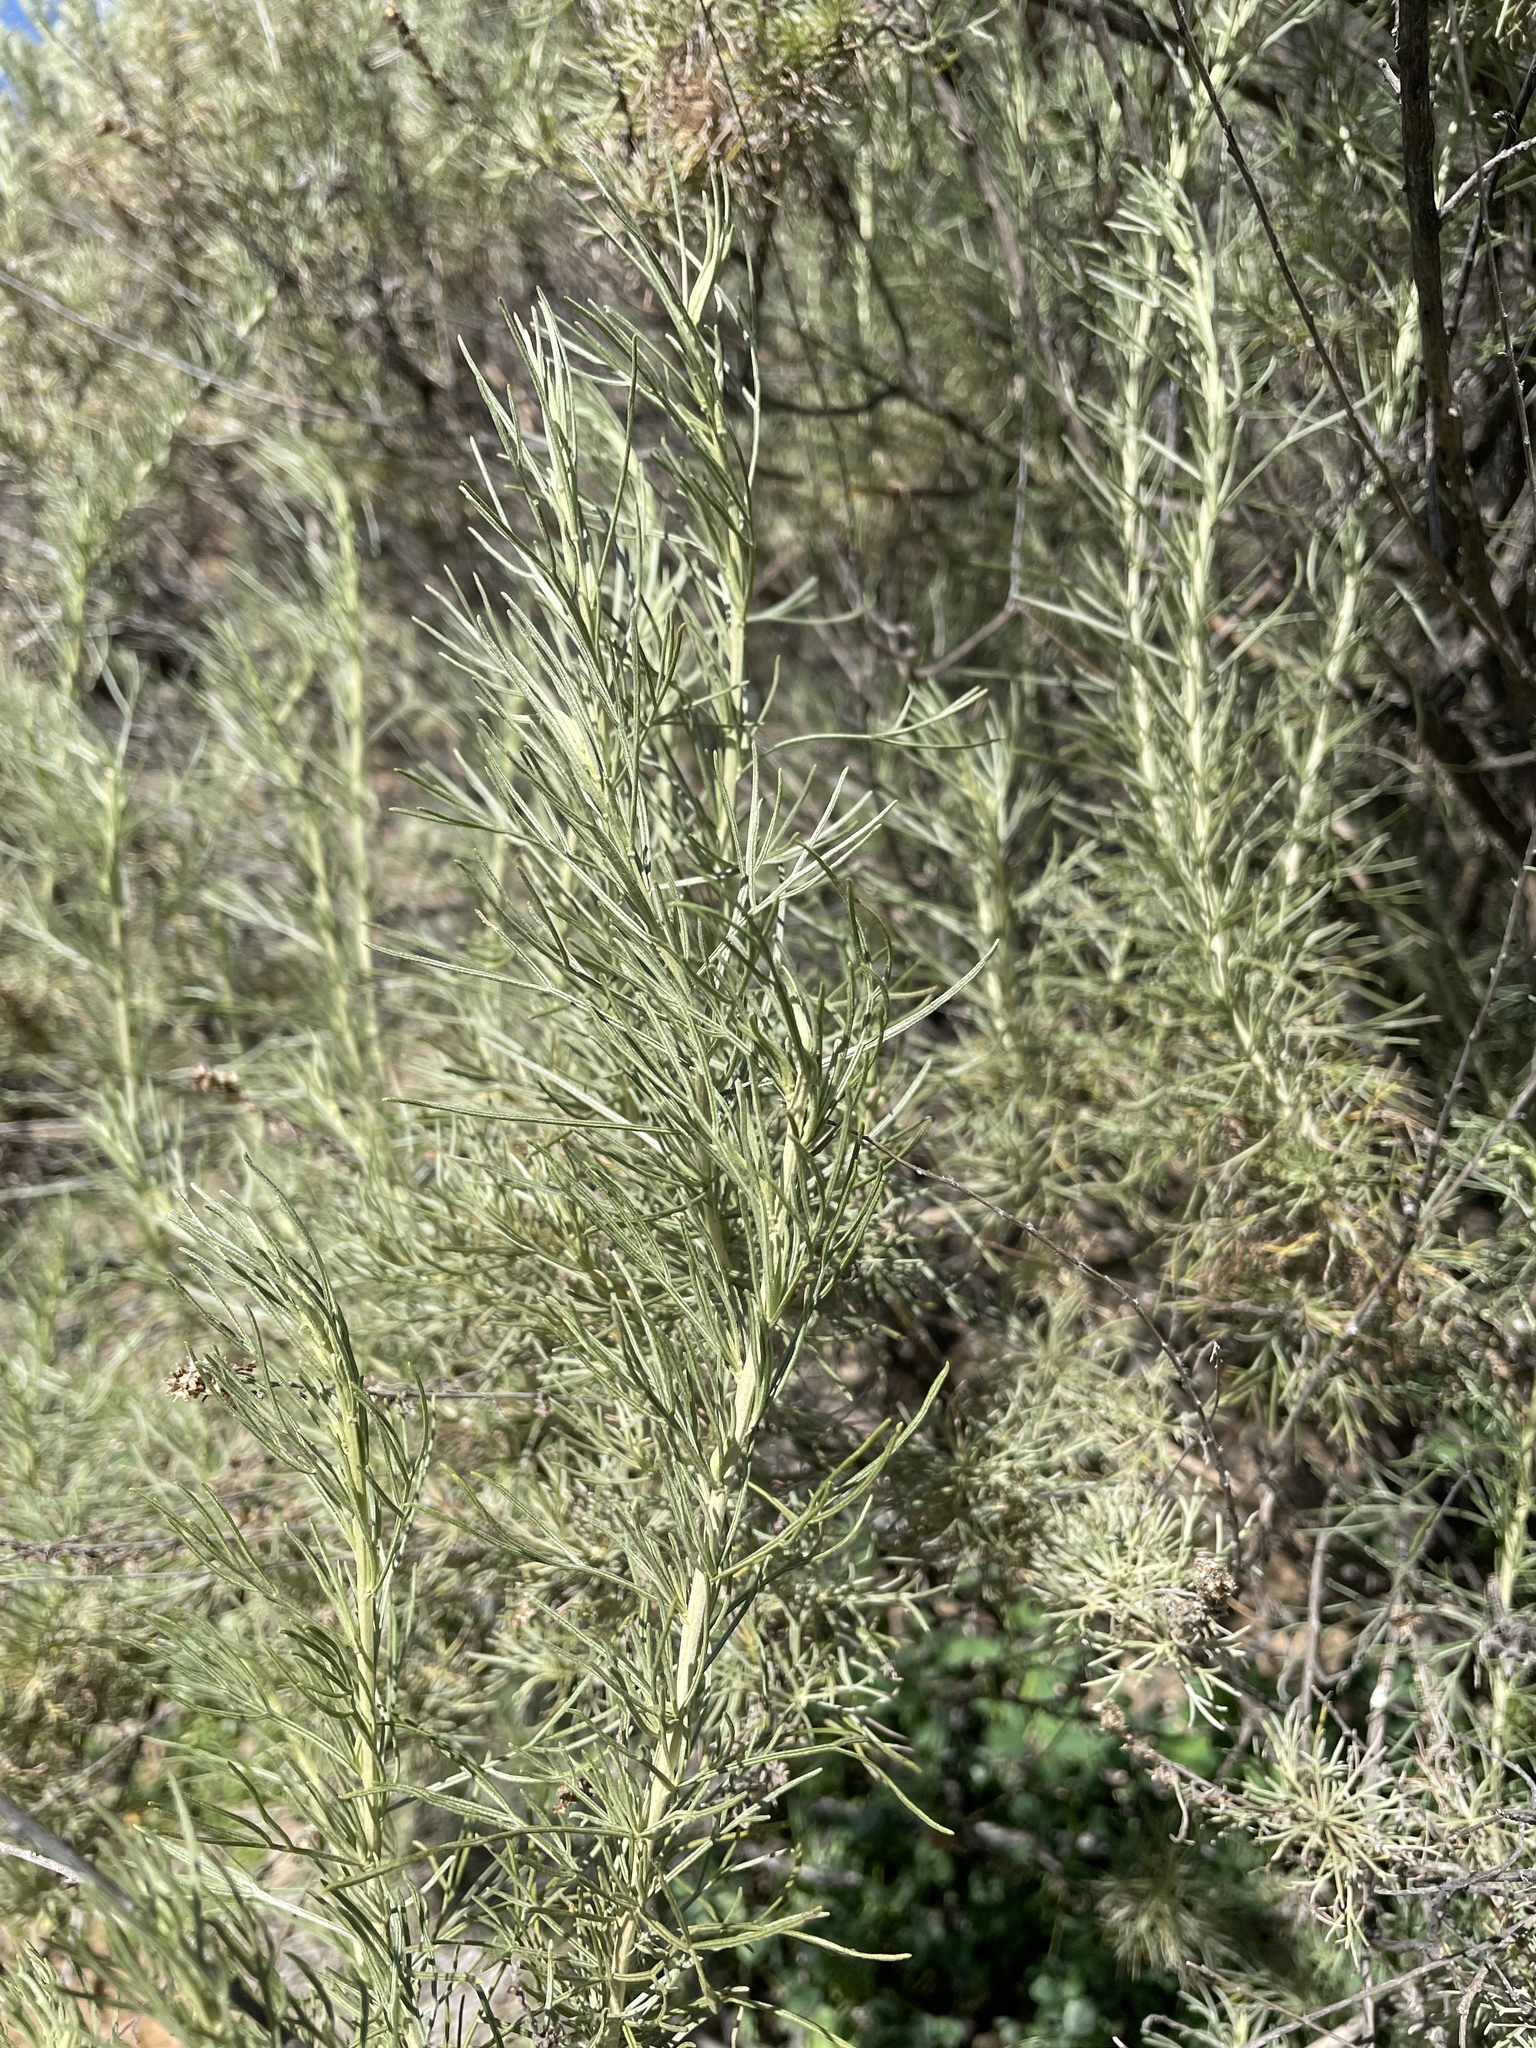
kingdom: Plantae
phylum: Tracheophyta
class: Magnoliopsida
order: Asterales
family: Asteraceae
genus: Artemisia
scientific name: Artemisia californica
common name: California sagebrush
